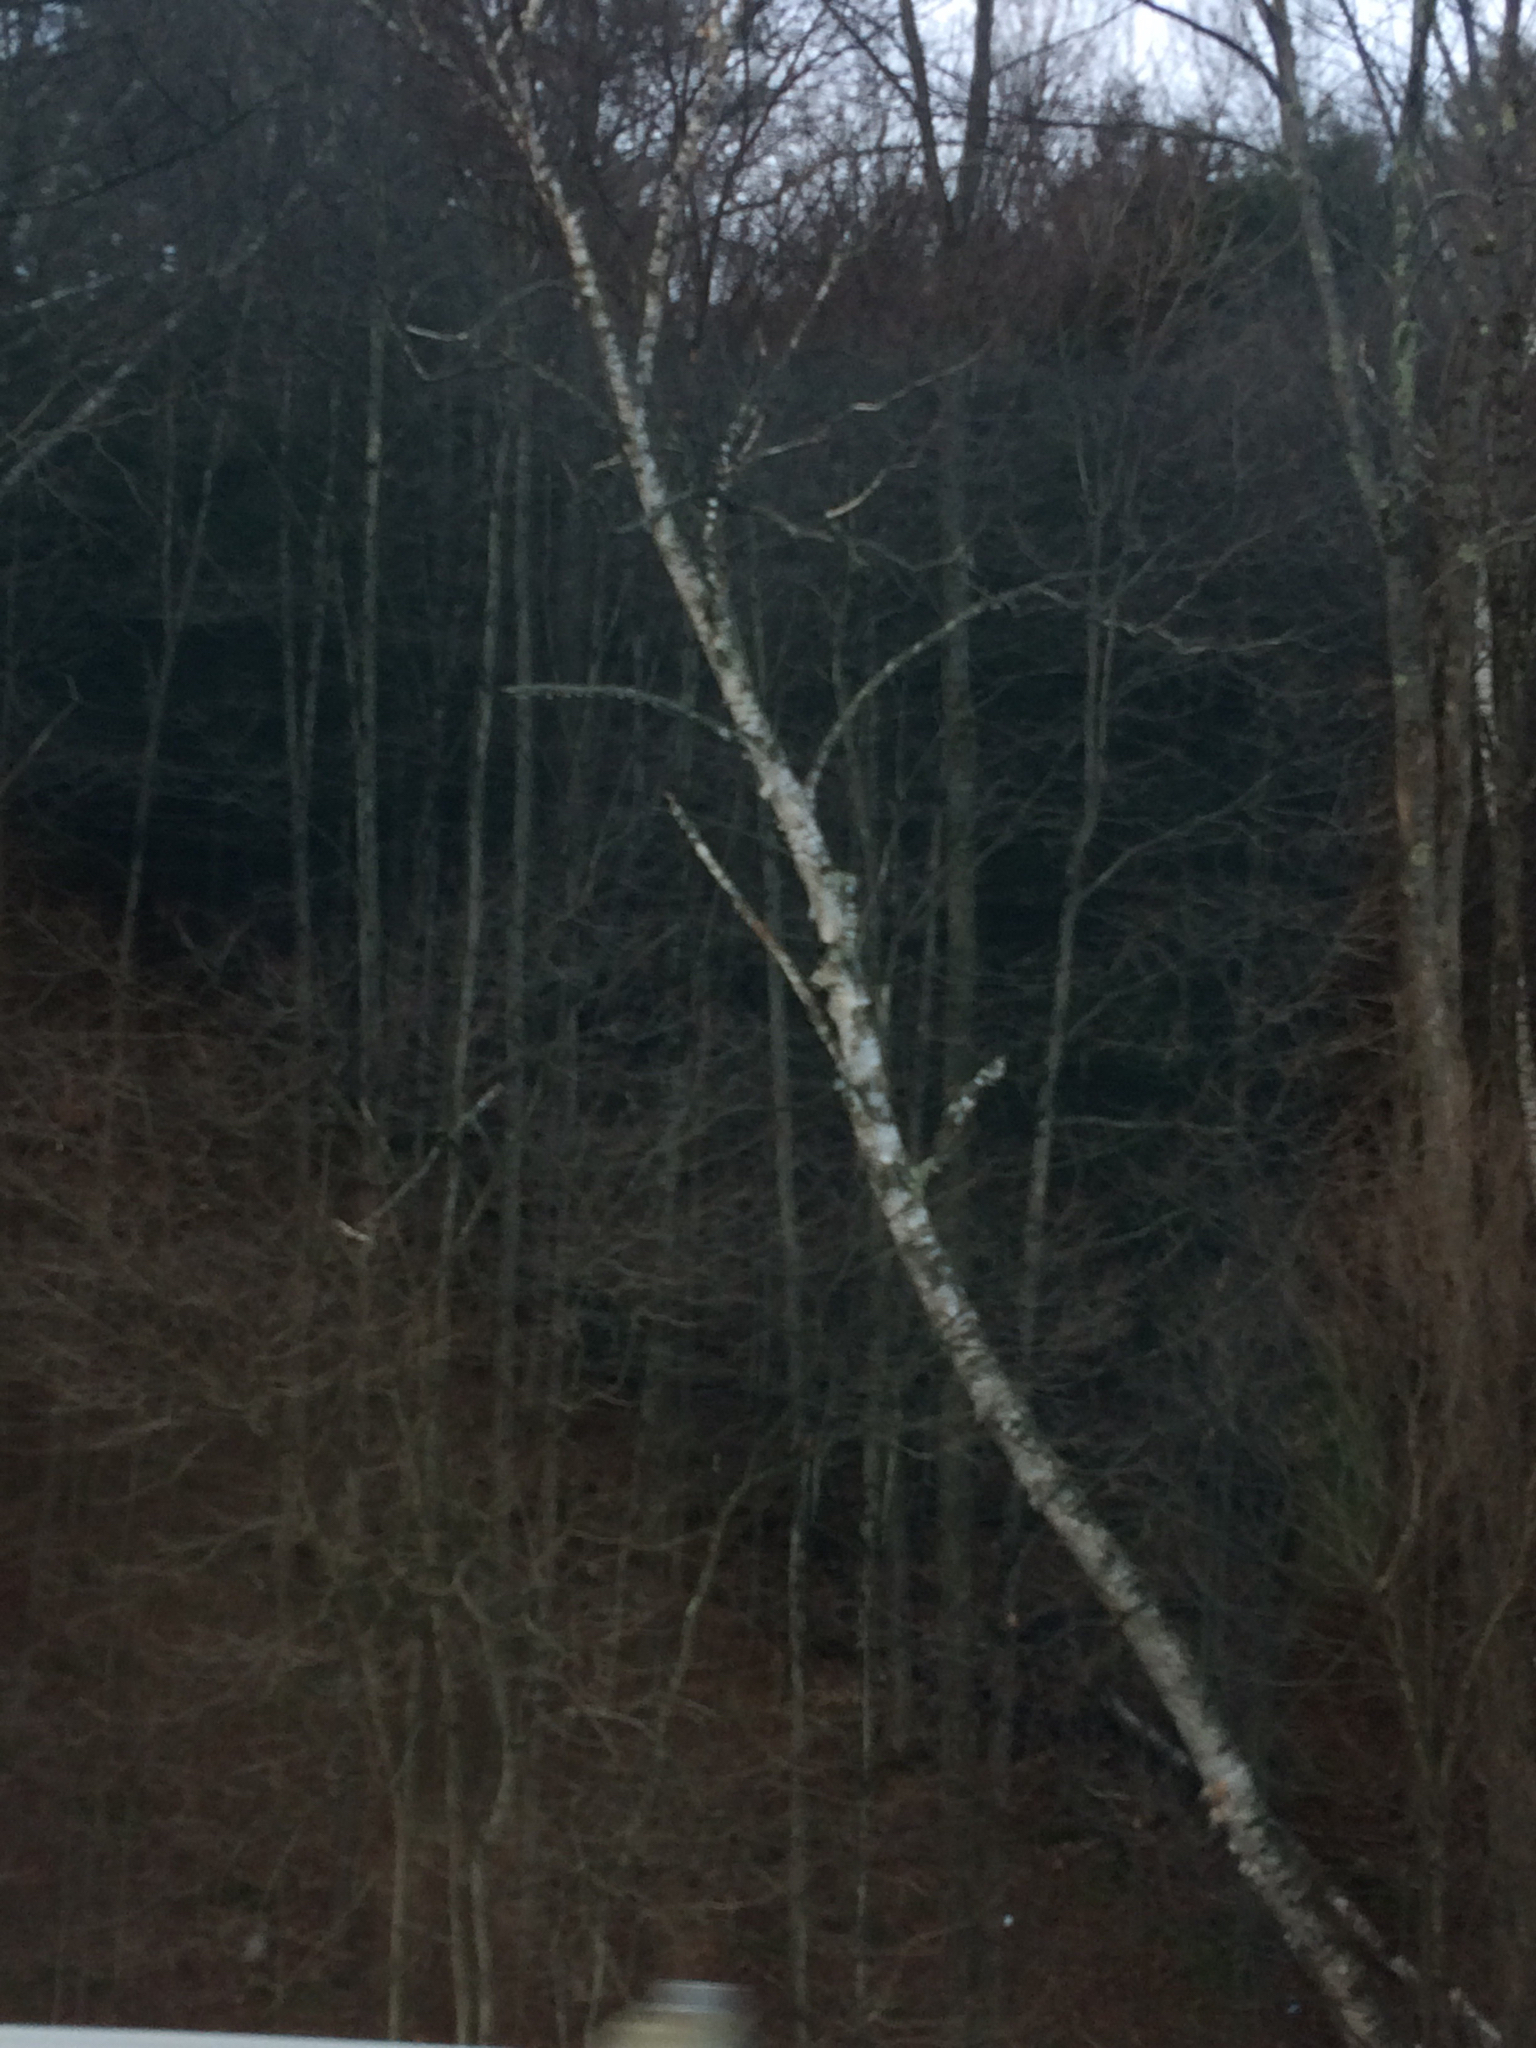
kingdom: Plantae
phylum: Tracheophyta
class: Magnoliopsida
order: Fagales
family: Betulaceae
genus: Betula
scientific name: Betula papyrifera
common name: Paper birch
